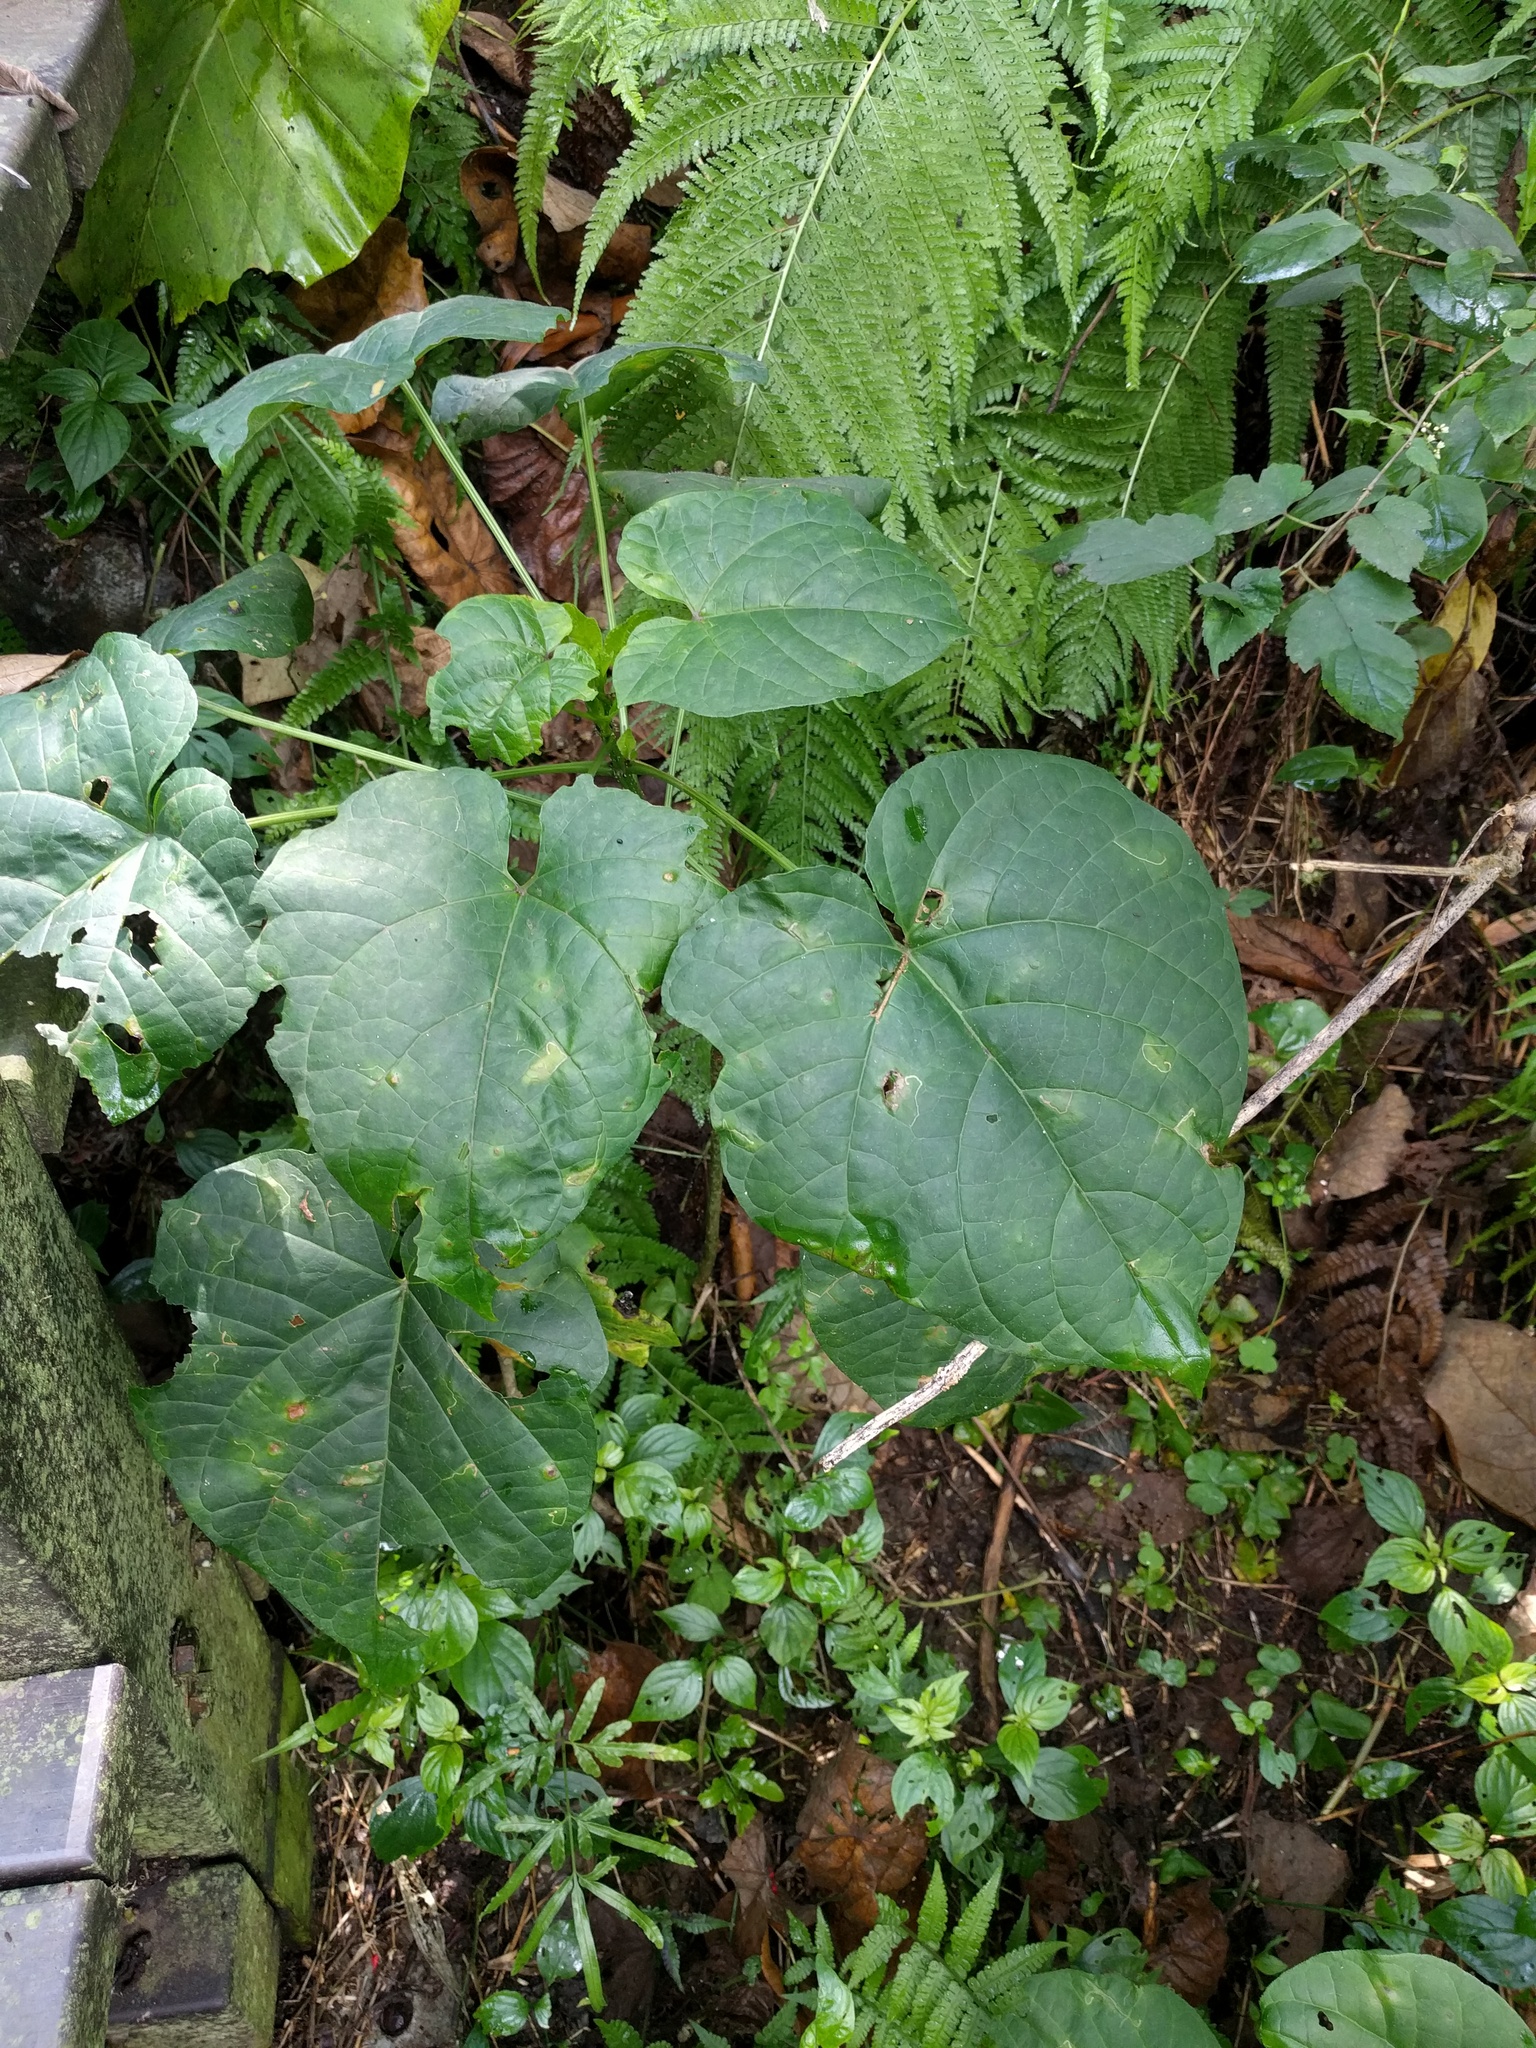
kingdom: Plantae
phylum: Tracheophyta
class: Magnoliopsida
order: Lamiales
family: Lamiaceae
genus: Clerodendrum
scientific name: Clerodendrum japonicum
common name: Japanese glorybower
